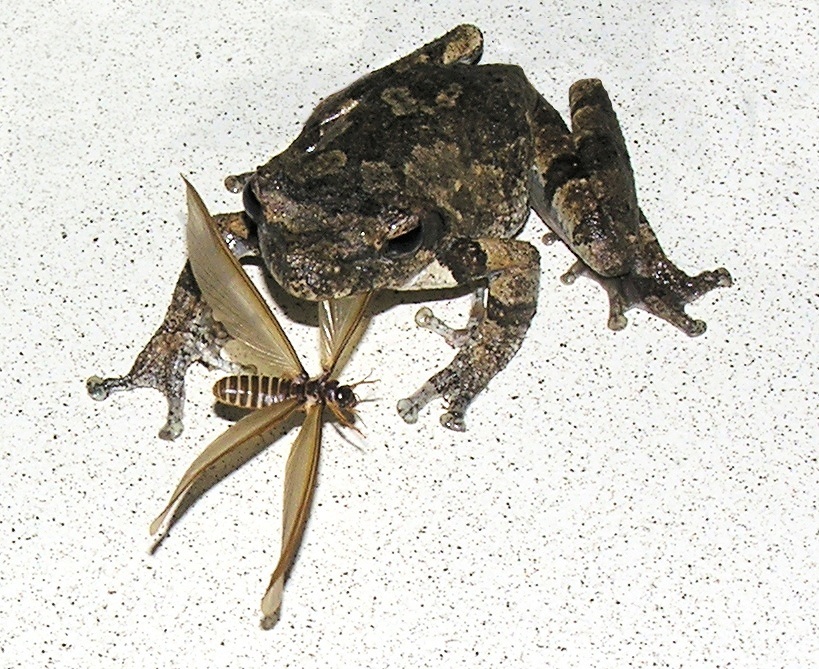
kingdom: Animalia
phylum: Chordata
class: Amphibia
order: Anura
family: Rhacophoridae
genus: Chiromantis
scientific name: Chiromantis xerampelina
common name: African gray treefrog
